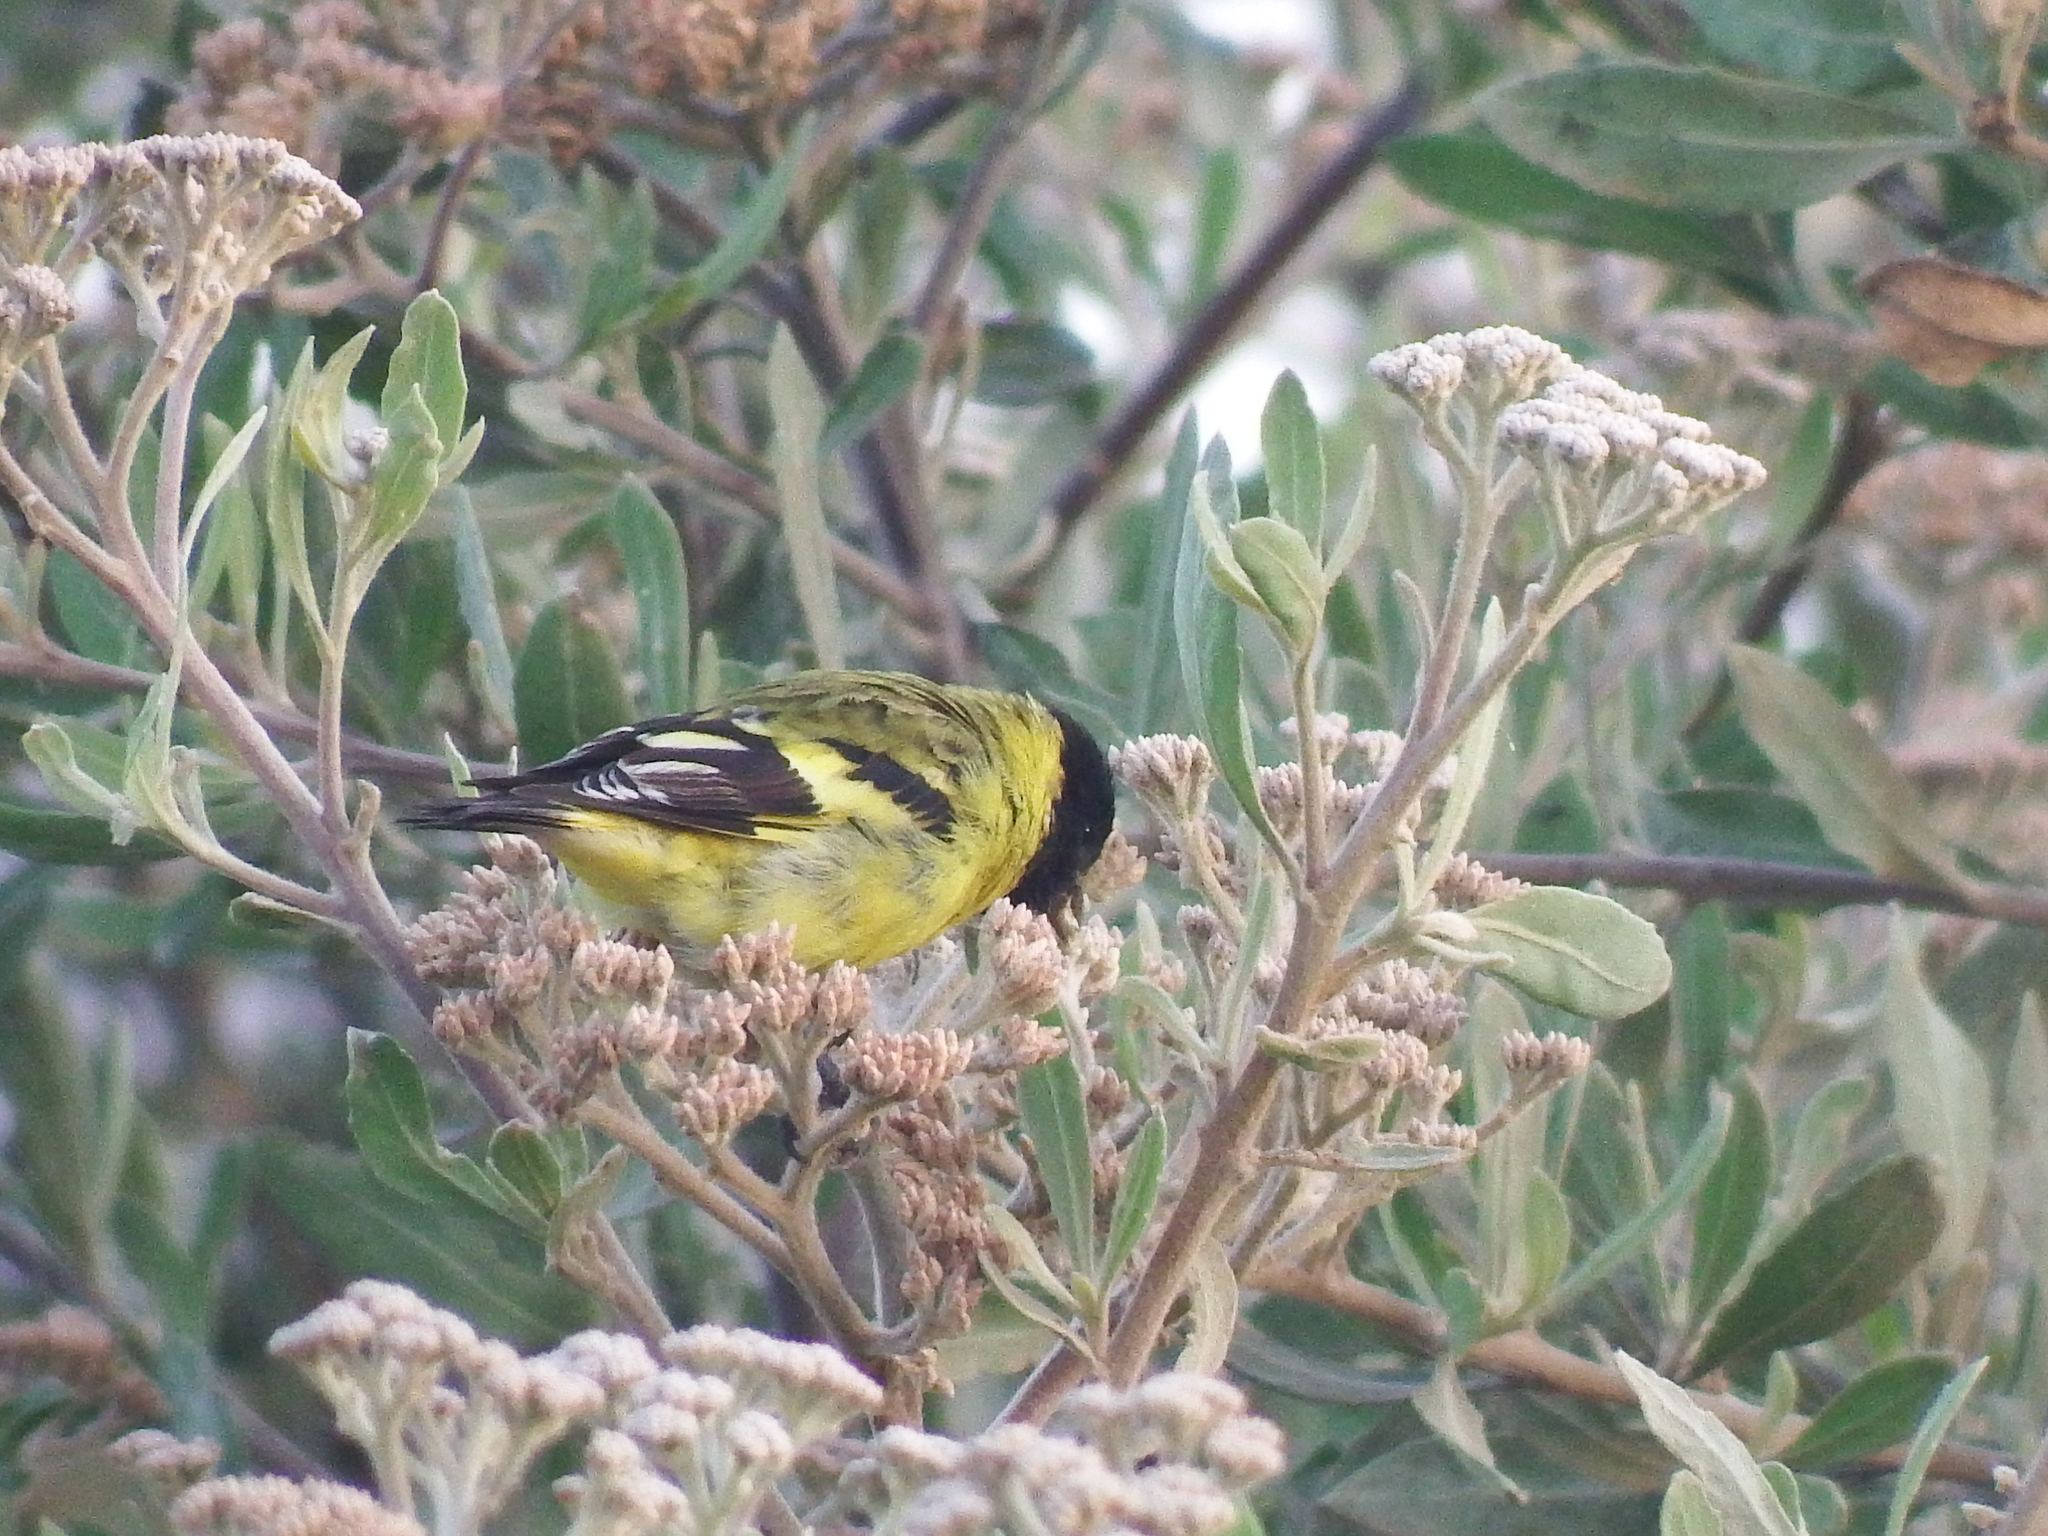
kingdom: Animalia
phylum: Chordata
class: Aves
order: Passeriformes
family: Fringillidae
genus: Spinus
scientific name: Spinus magellanicus
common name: Hooded siskin
